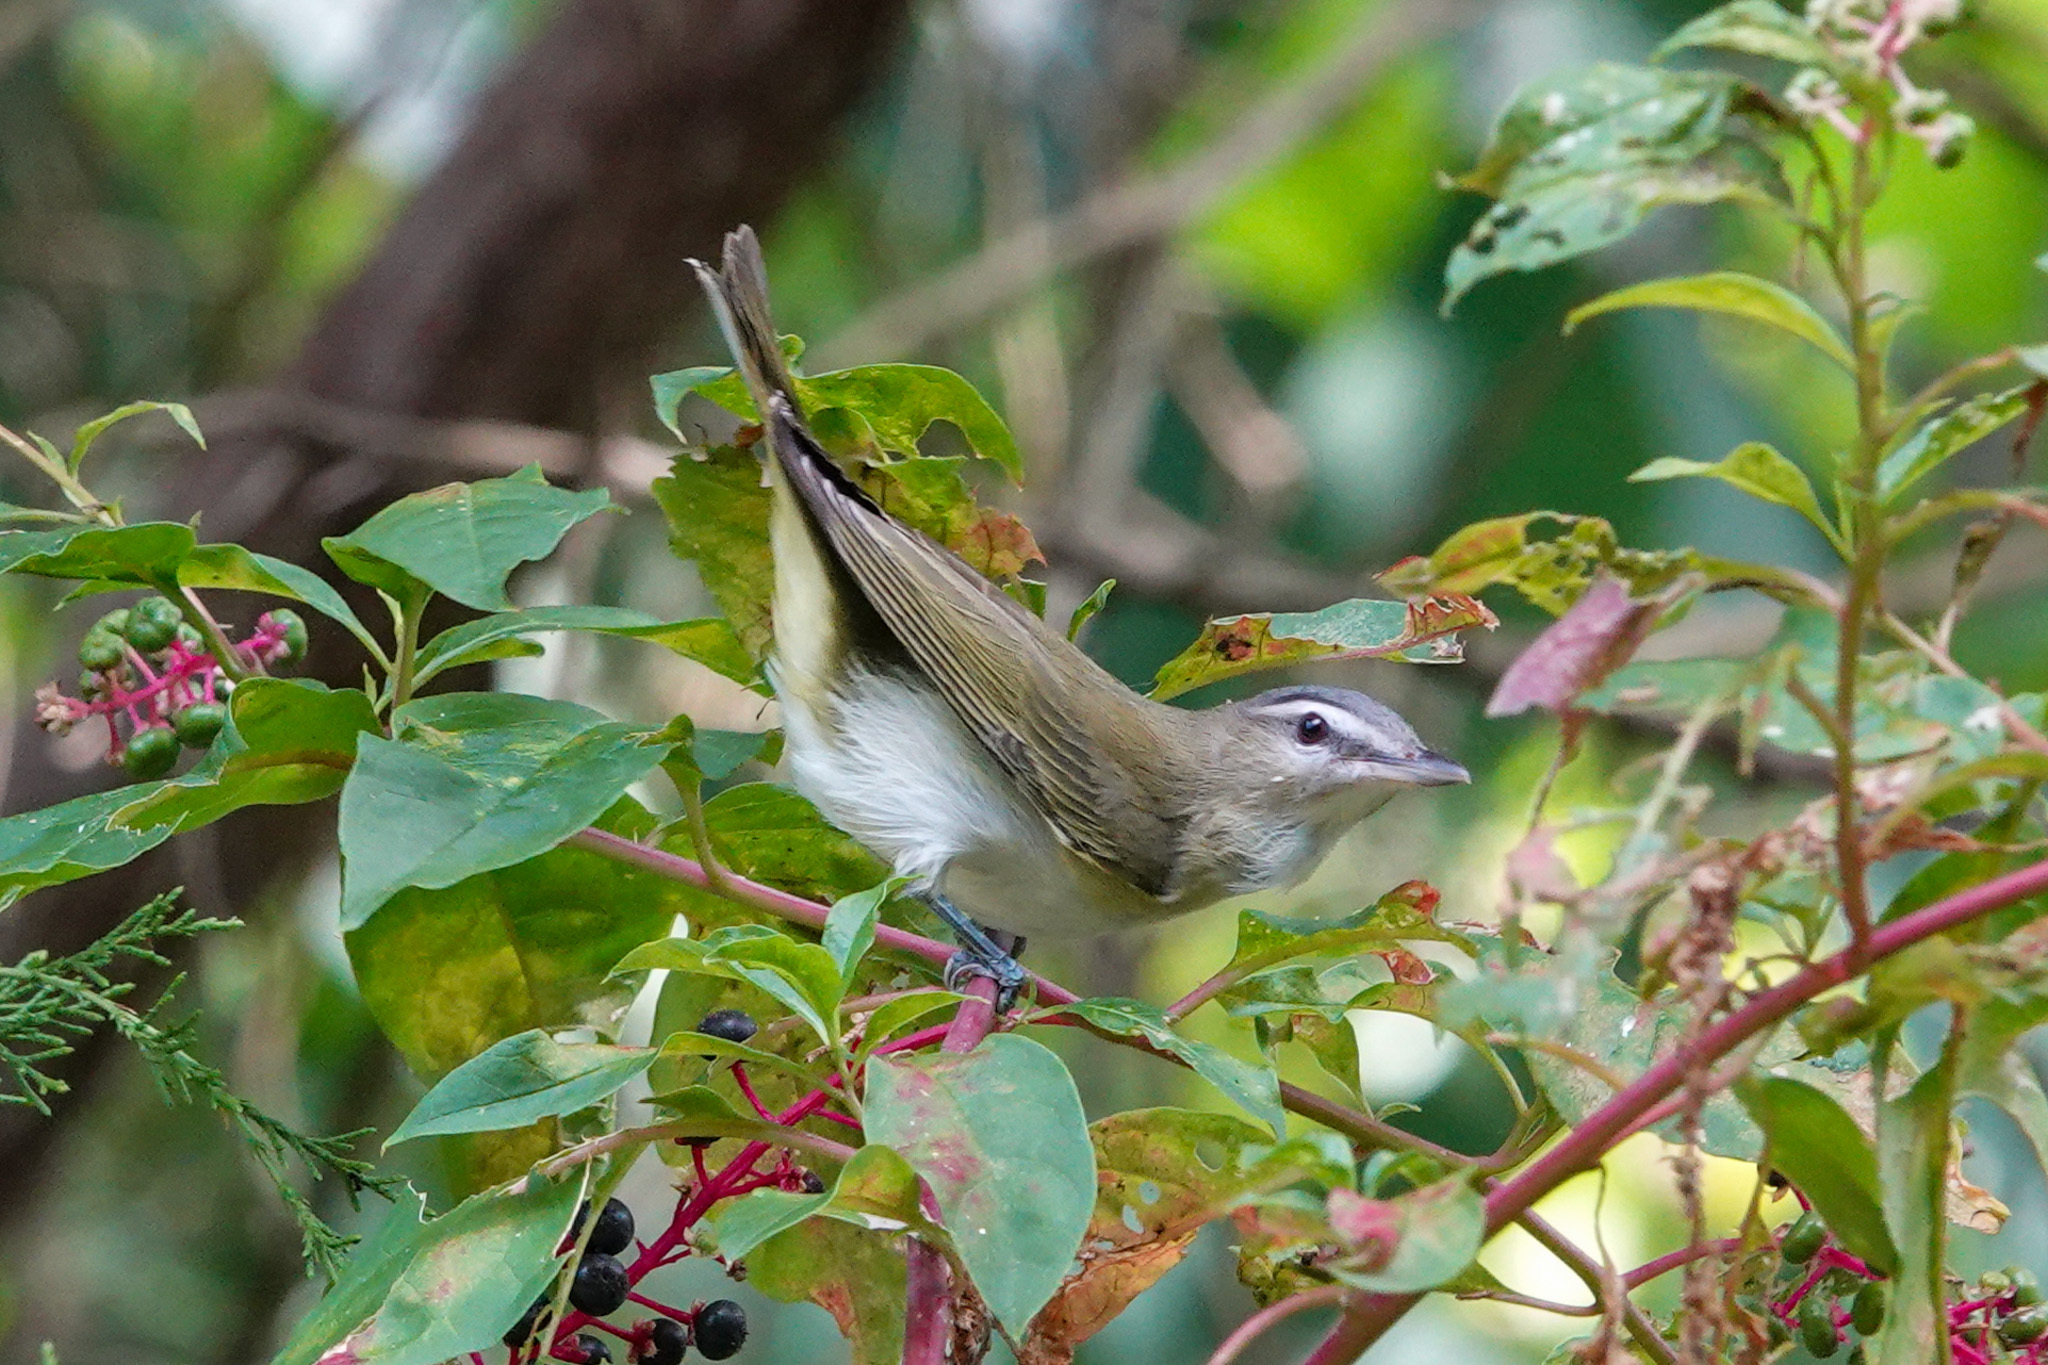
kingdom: Animalia
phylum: Chordata
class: Aves
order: Passeriformes
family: Vireonidae
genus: Vireo
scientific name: Vireo olivaceus
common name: Red-eyed vireo
